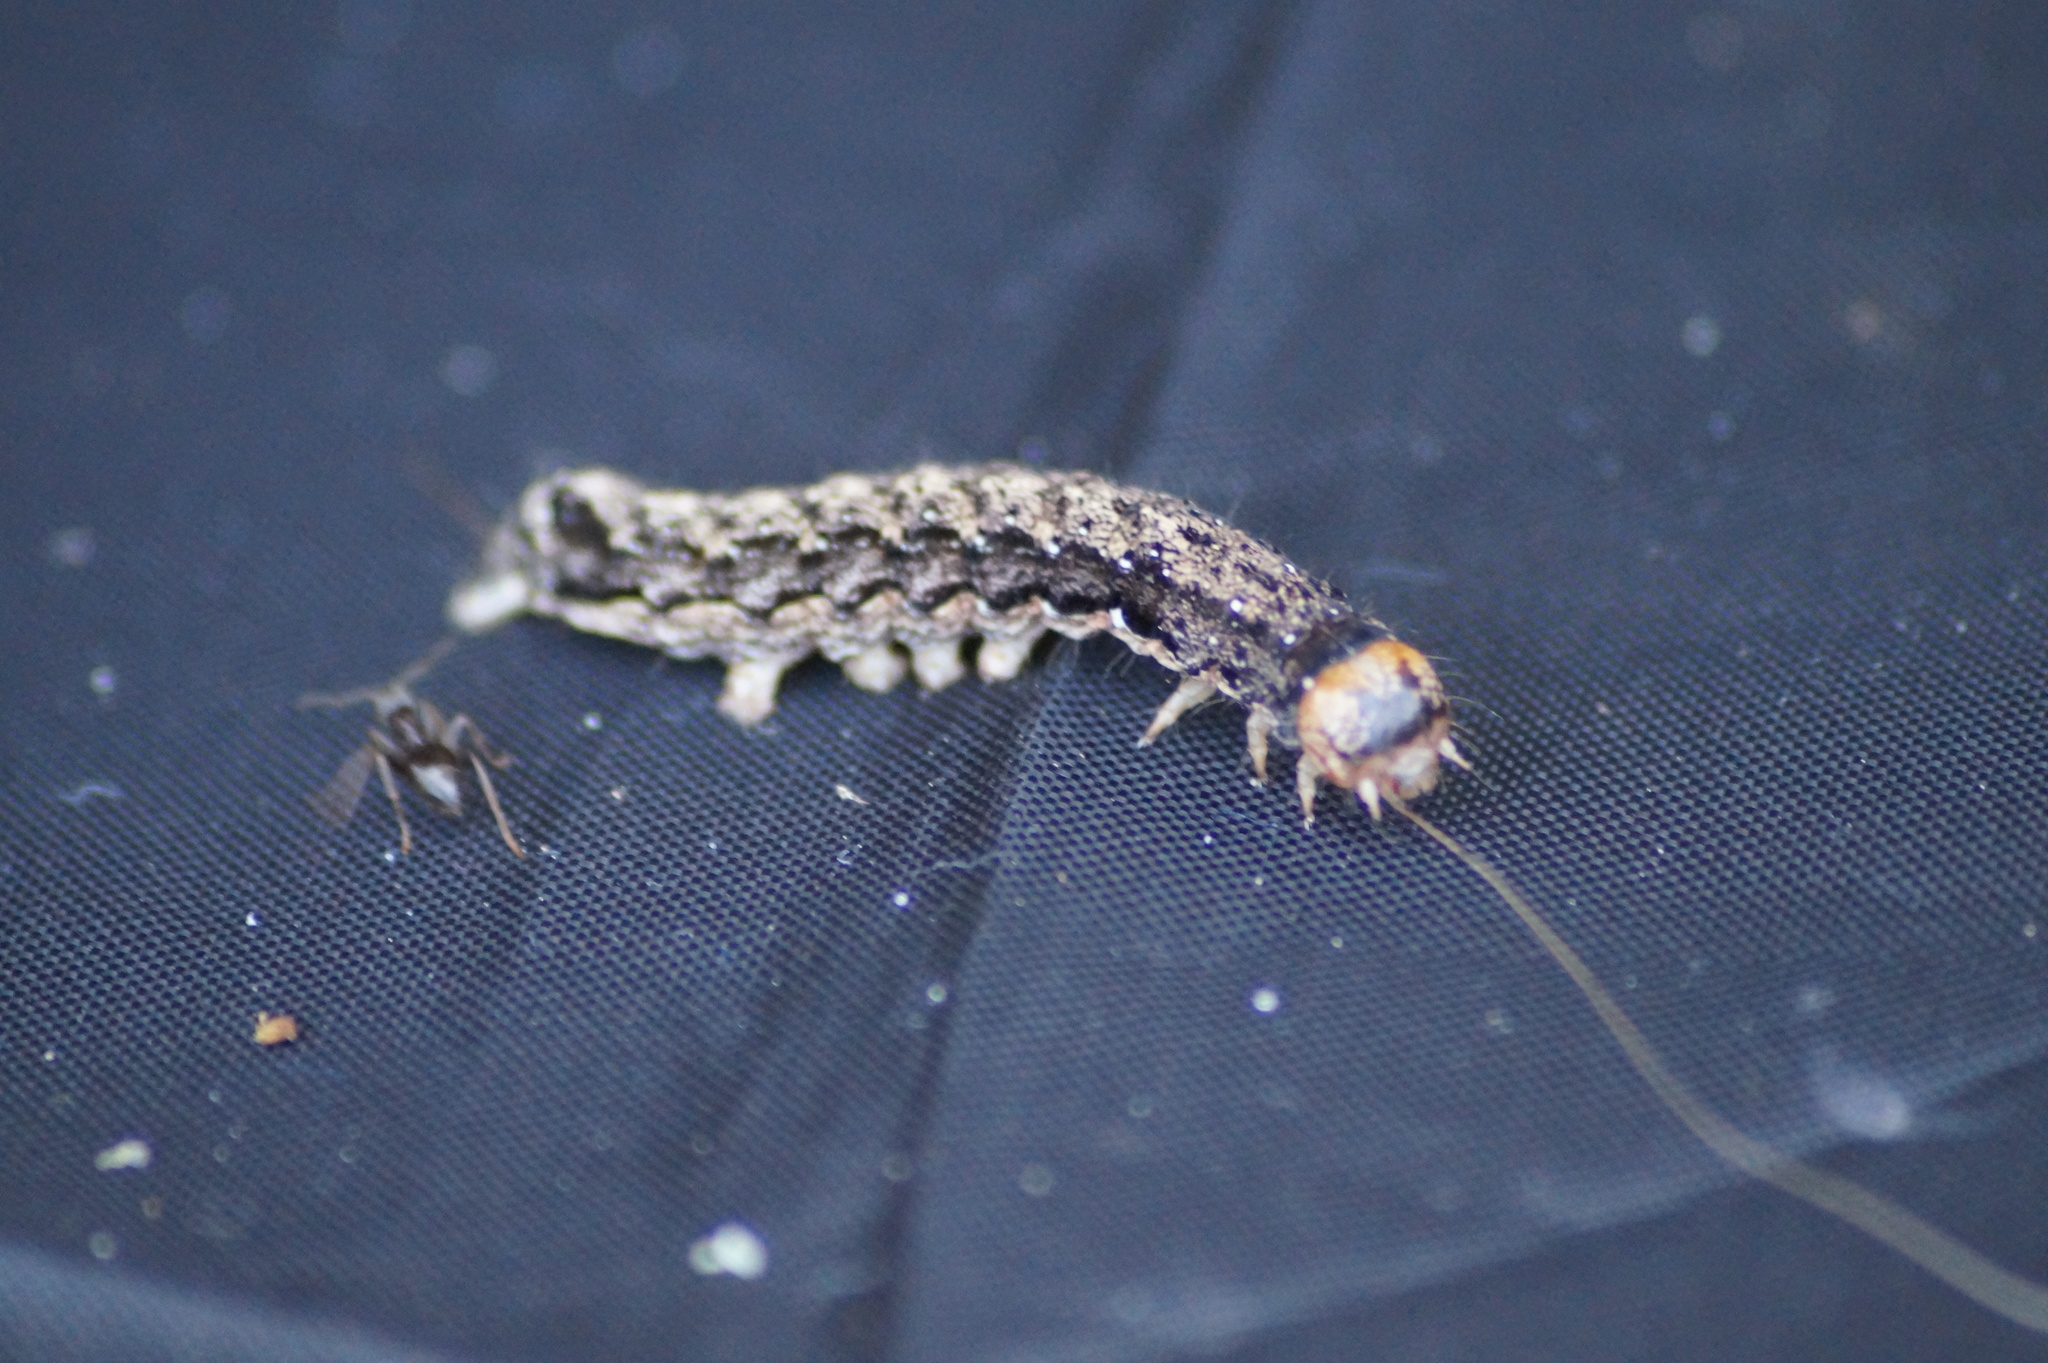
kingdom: Animalia
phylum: Arthropoda
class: Insecta
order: Lepidoptera
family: Noctuidae
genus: Anorthoa
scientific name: Anorthoa munda
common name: Twin-spotted quaker
